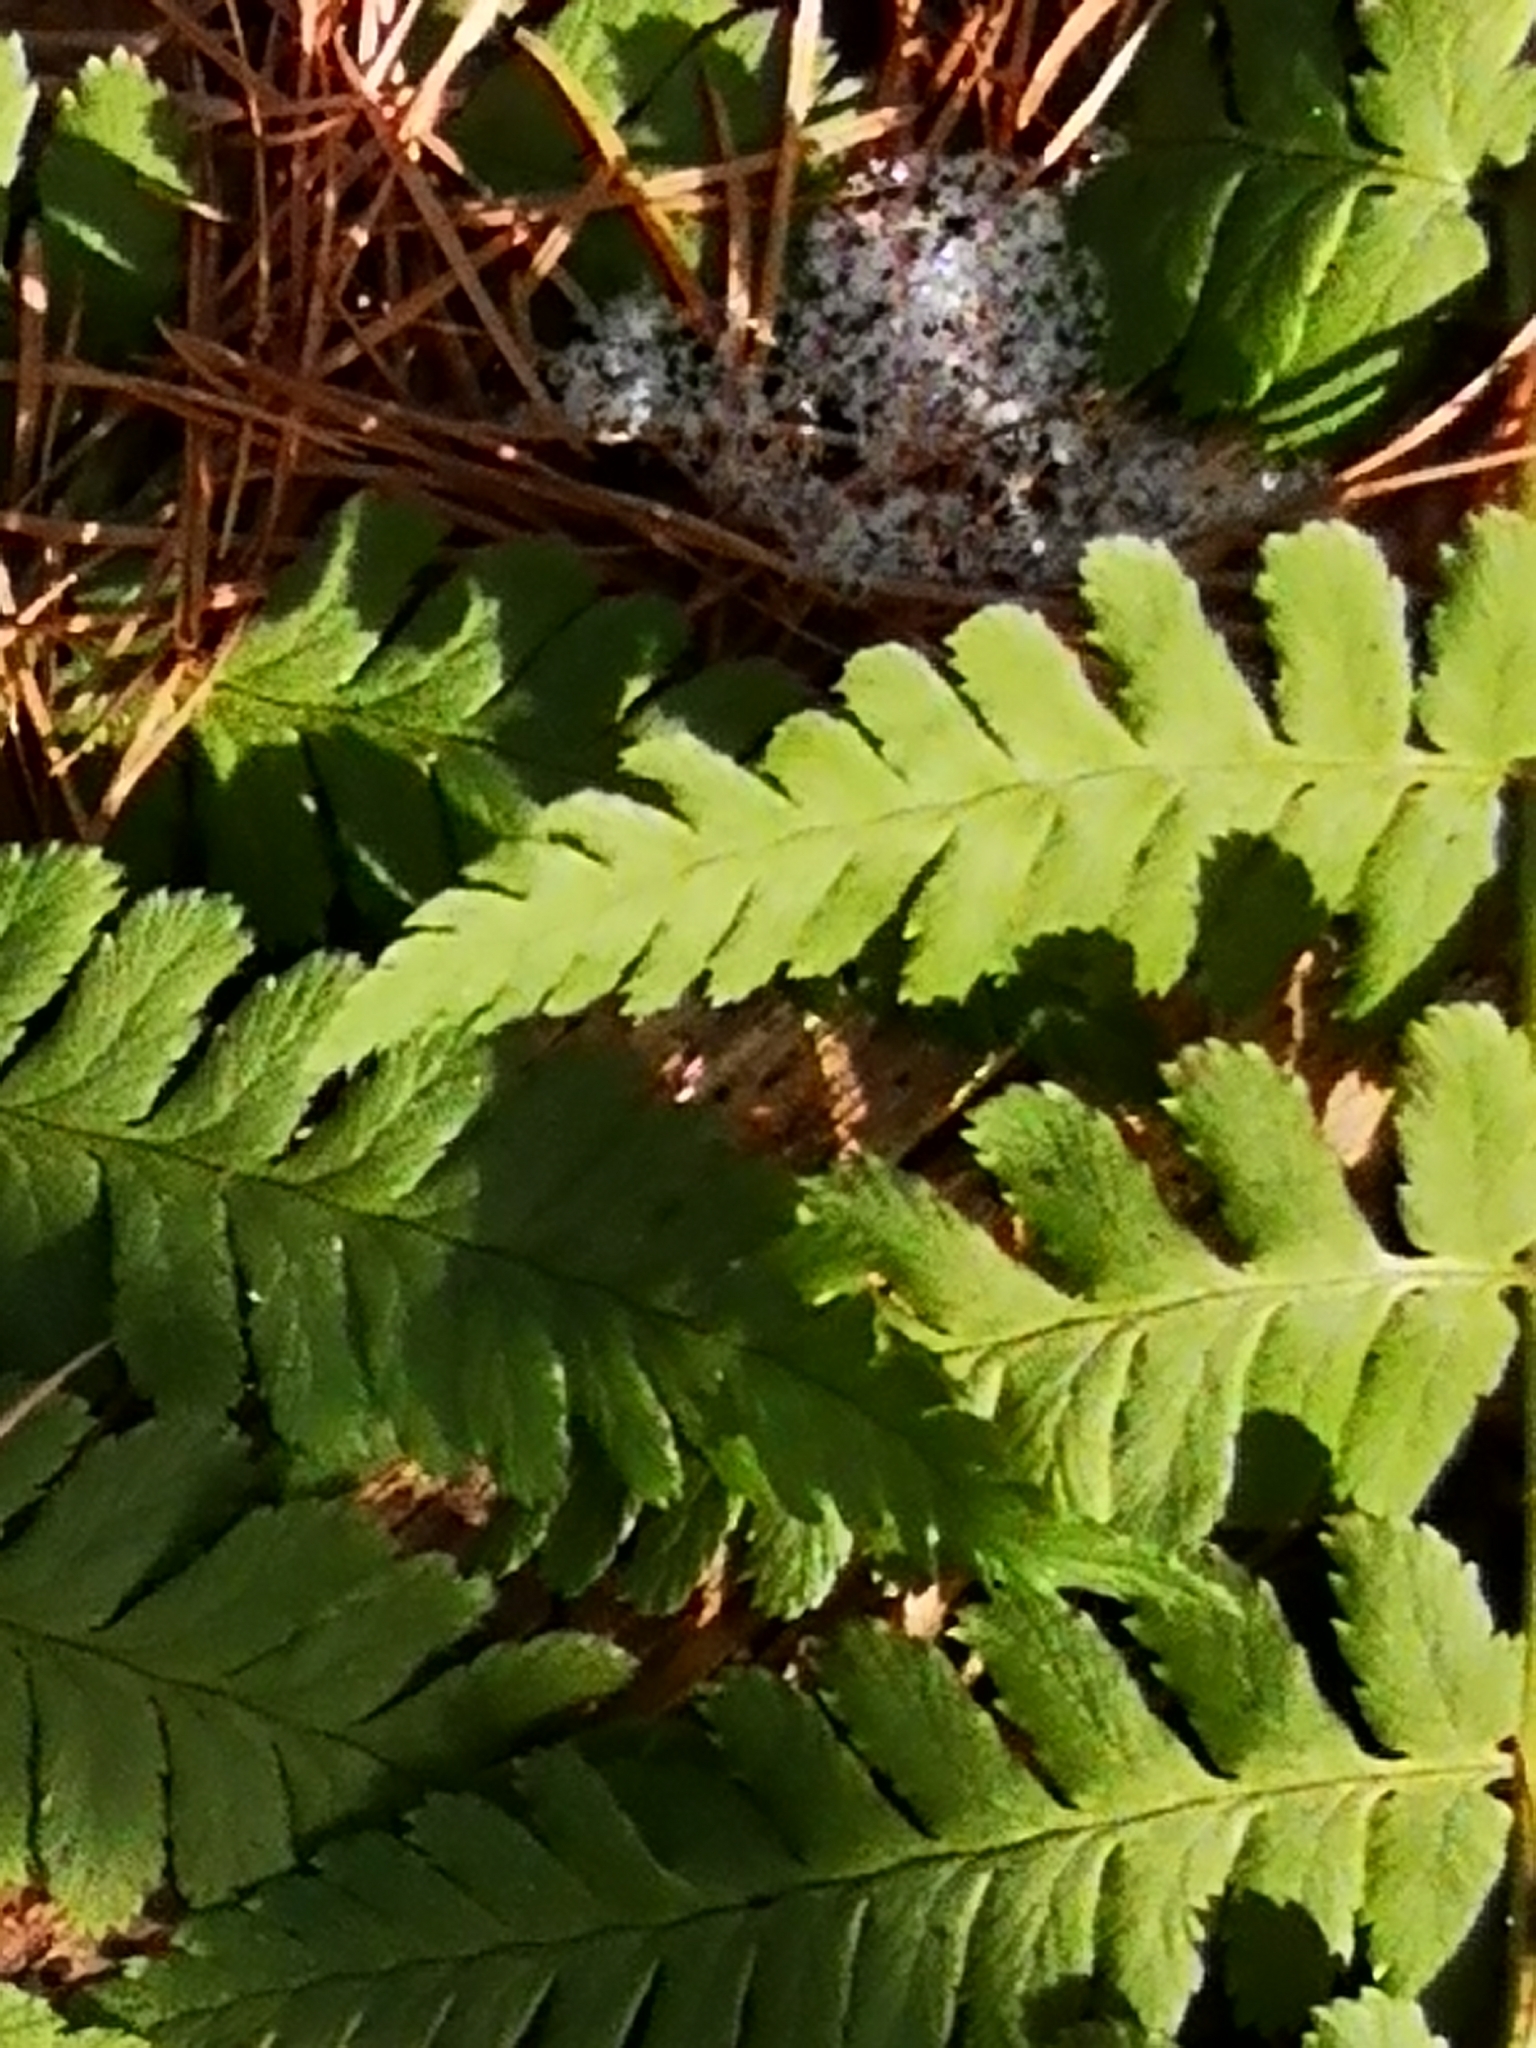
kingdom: Plantae
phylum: Tracheophyta
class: Polypodiopsida
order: Polypodiales
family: Dryopteridaceae
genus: Dryopteris
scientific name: Dryopteris filix-mas
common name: Male fern
